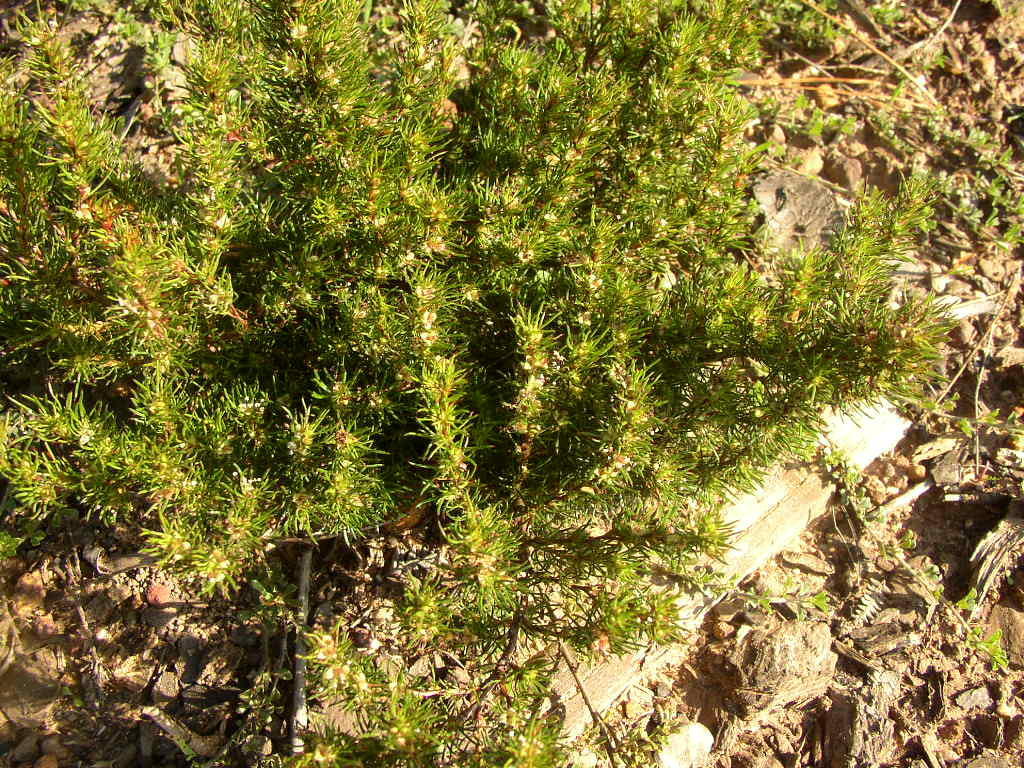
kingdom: Plantae
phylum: Tracheophyta
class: Magnoliopsida
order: Rosales
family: Rosaceae
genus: Cliffortia
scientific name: Cliffortia filifolia
